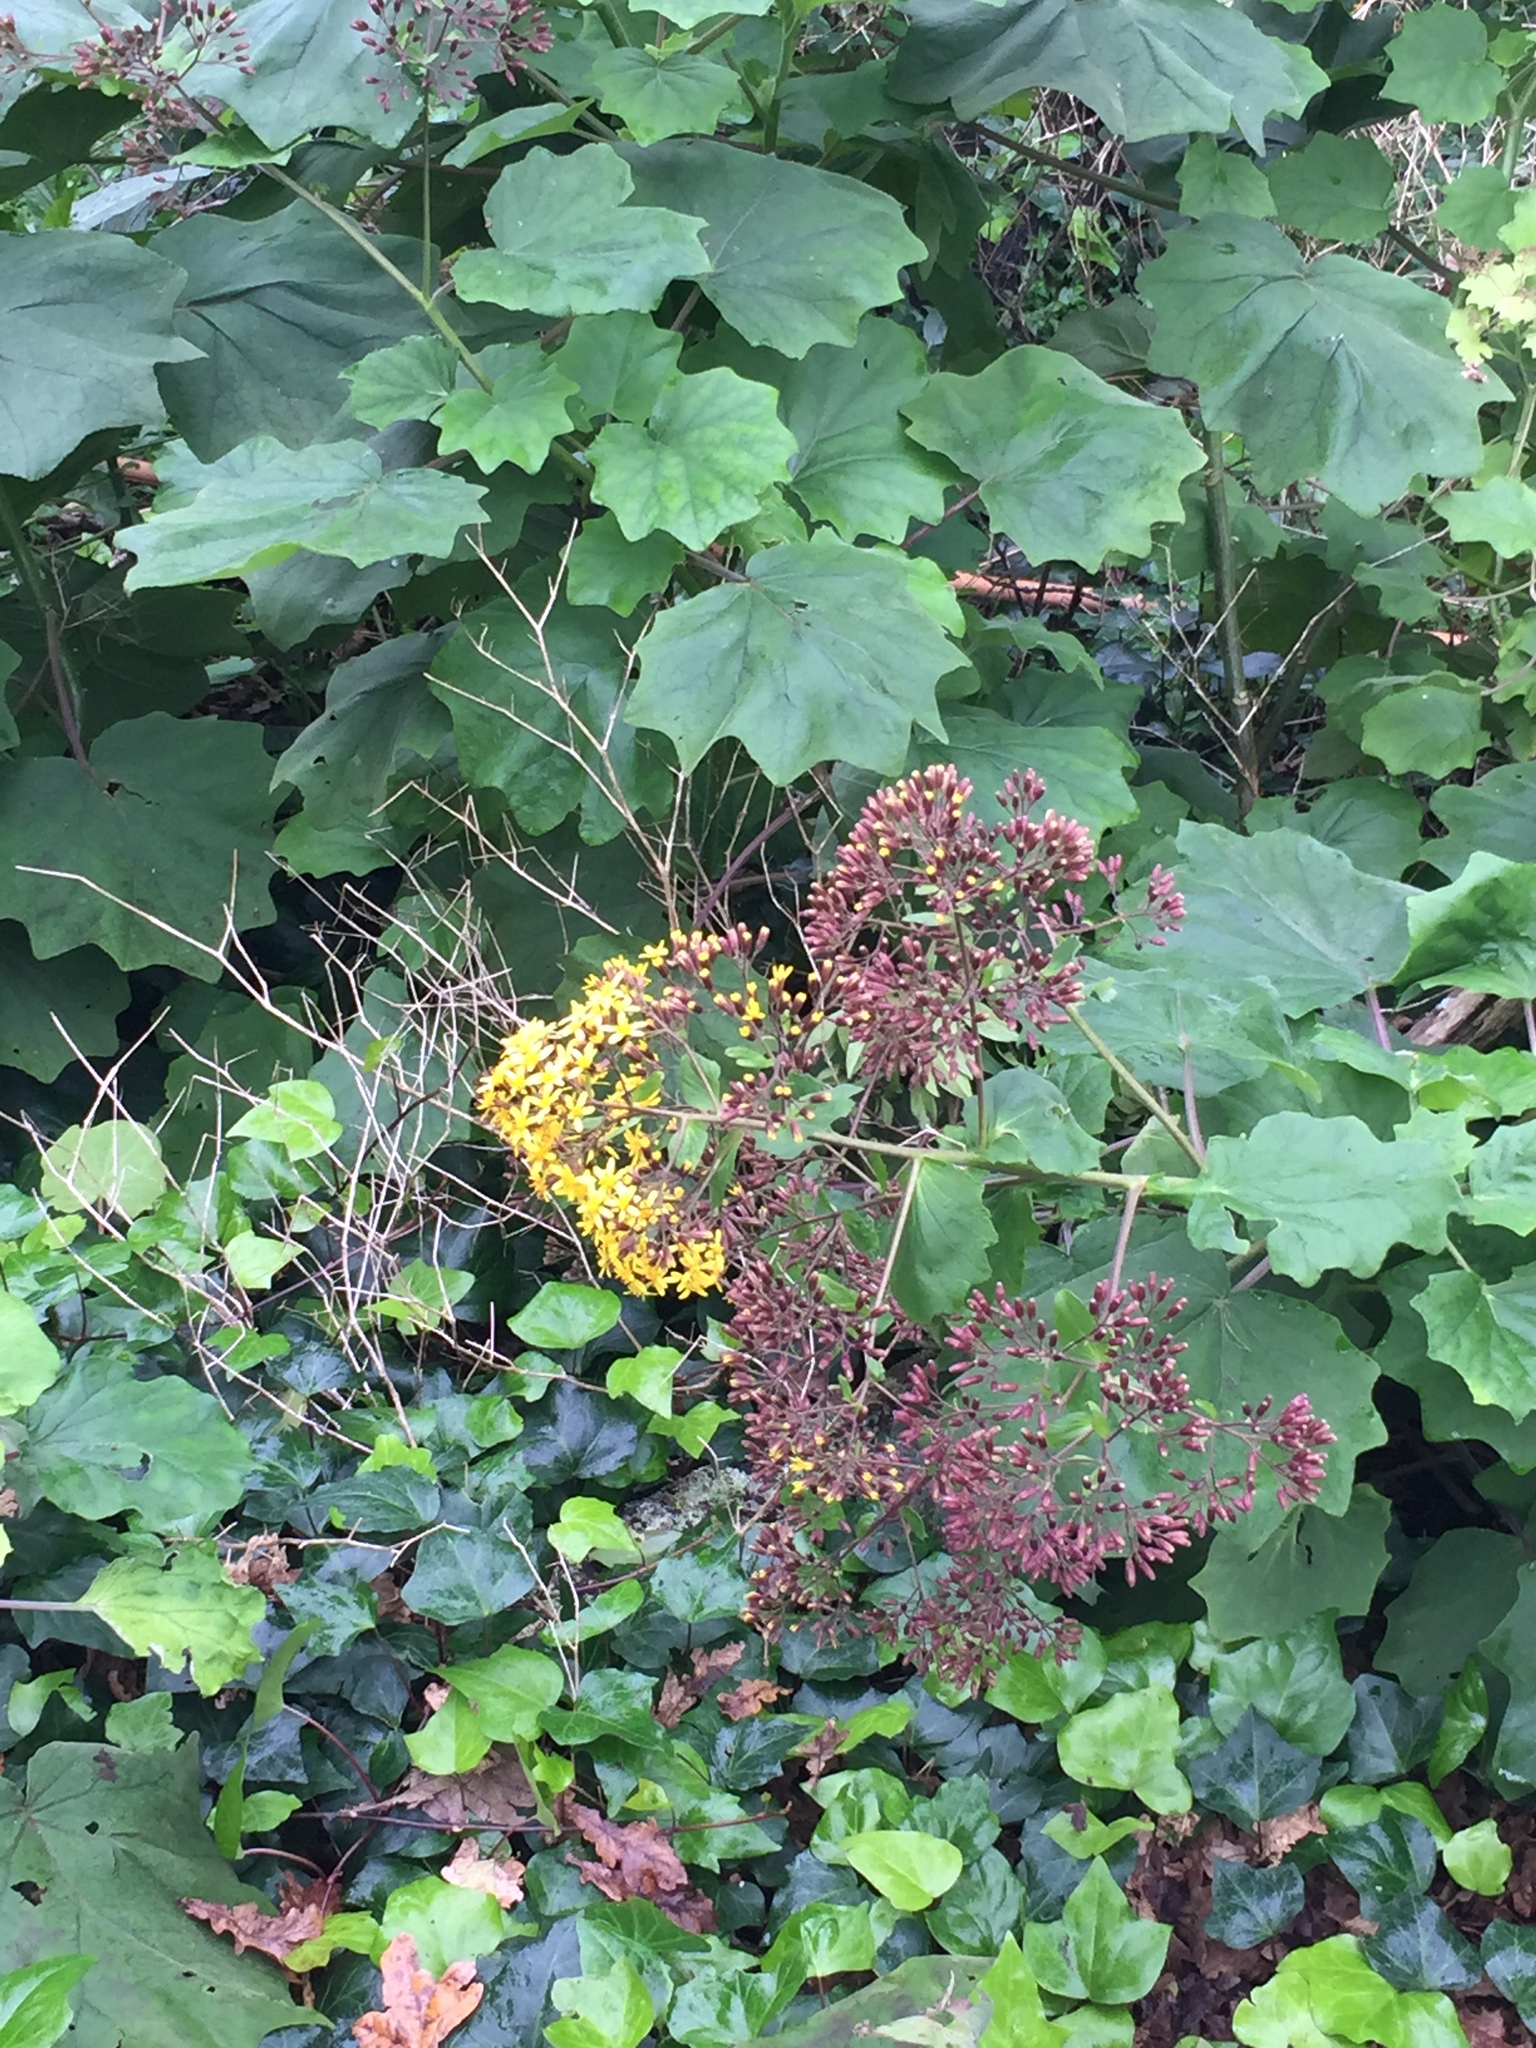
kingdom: Plantae
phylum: Tracheophyta
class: Magnoliopsida
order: Asterales
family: Asteraceae
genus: Roldana
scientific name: Roldana petasitis
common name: California-geranium
